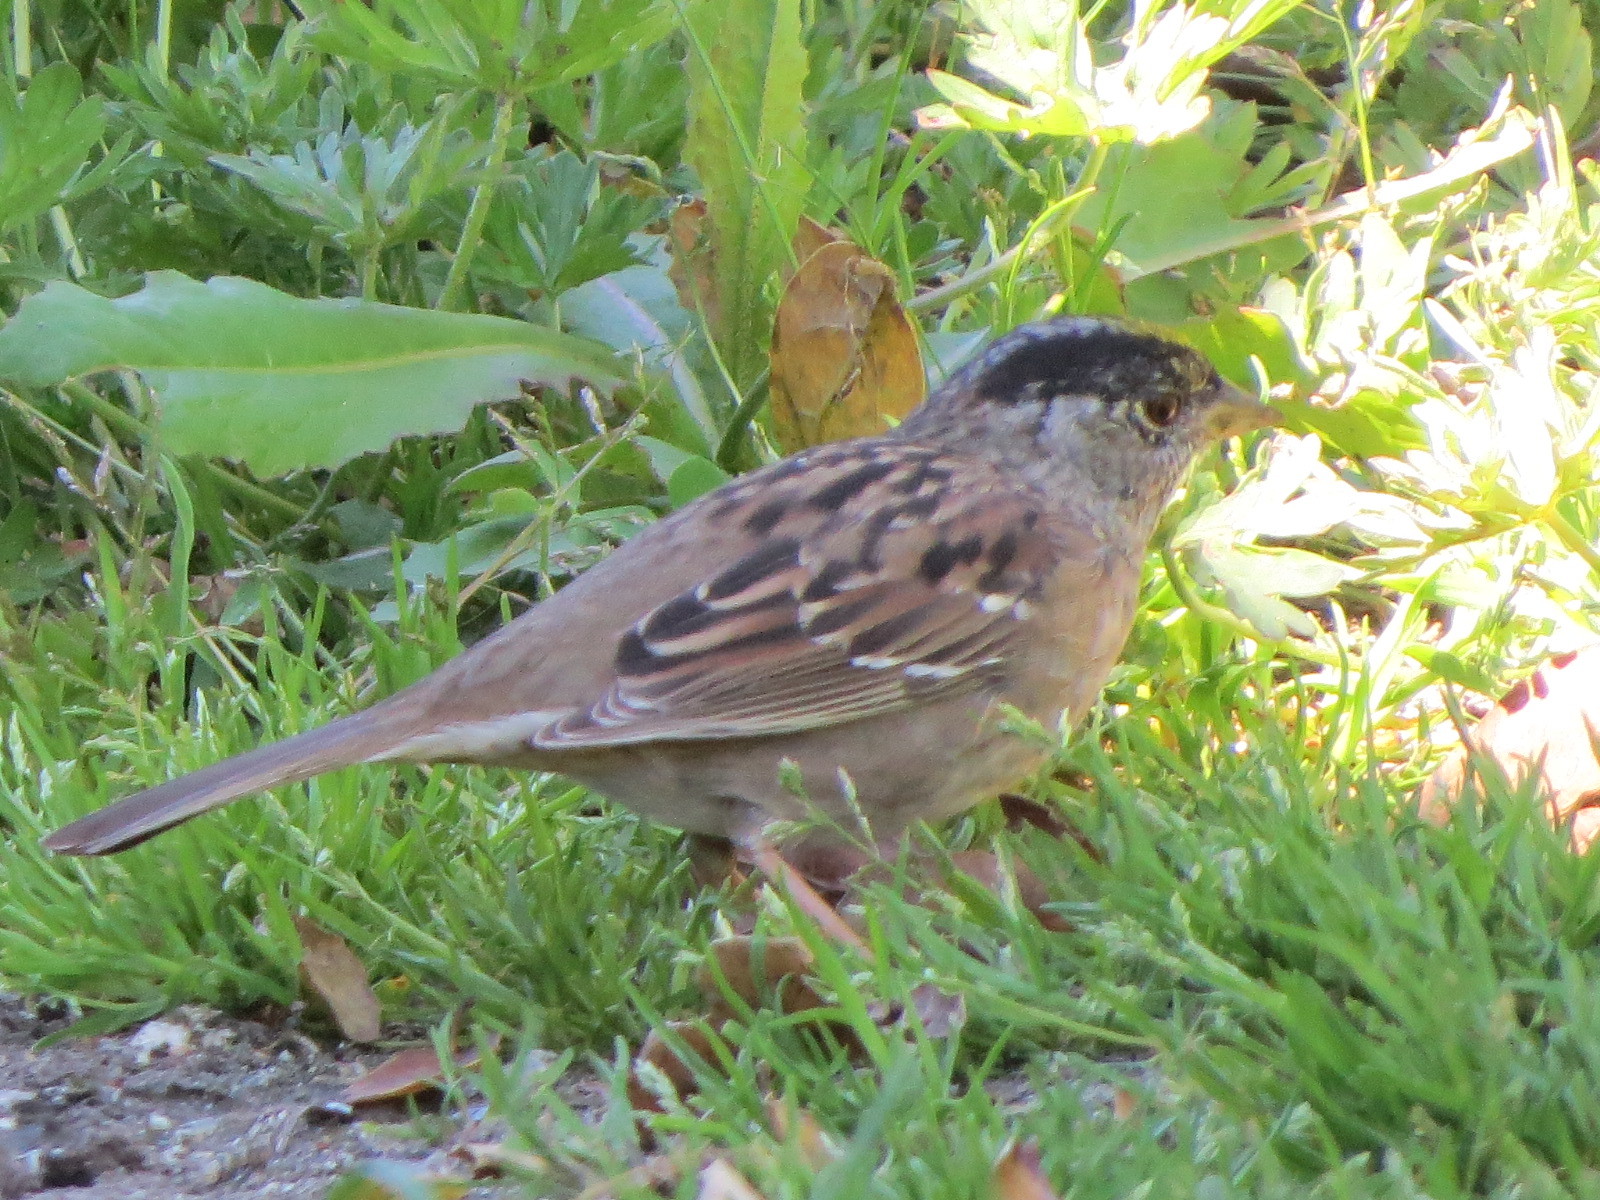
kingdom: Animalia
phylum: Chordata
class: Aves
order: Passeriformes
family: Passerellidae
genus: Zonotrichia
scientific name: Zonotrichia atricapilla
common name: Golden-crowned sparrow
